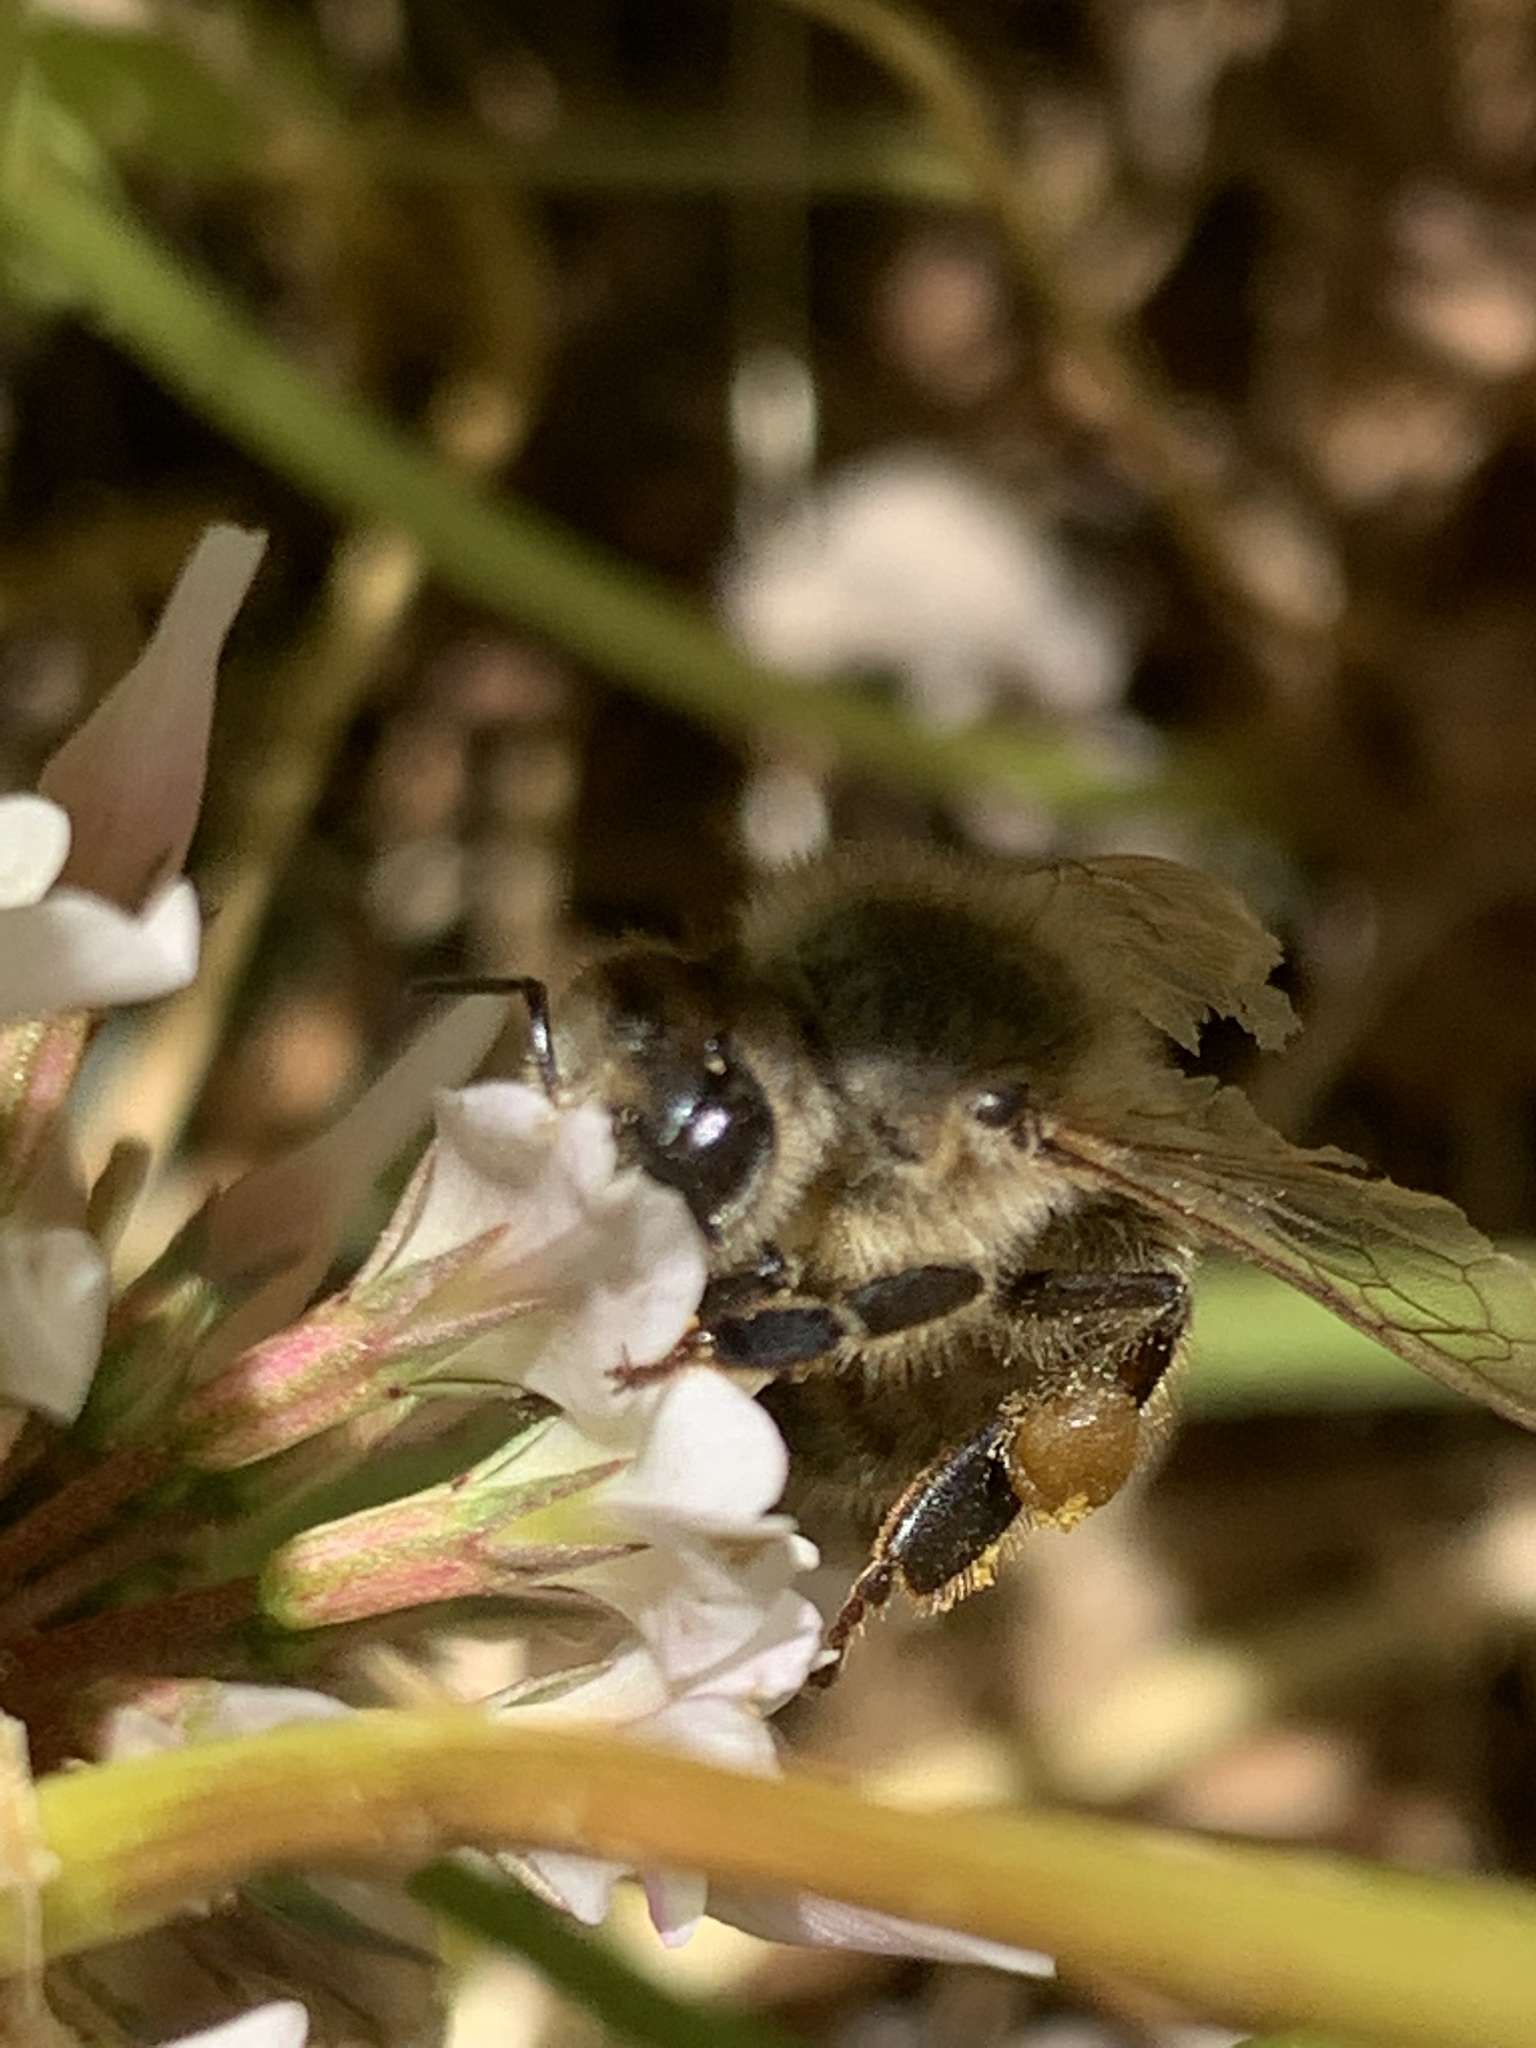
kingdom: Animalia
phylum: Arthropoda
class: Insecta
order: Hymenoptera
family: Apidae
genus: Apis
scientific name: Apis mellifera
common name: Honey bee
